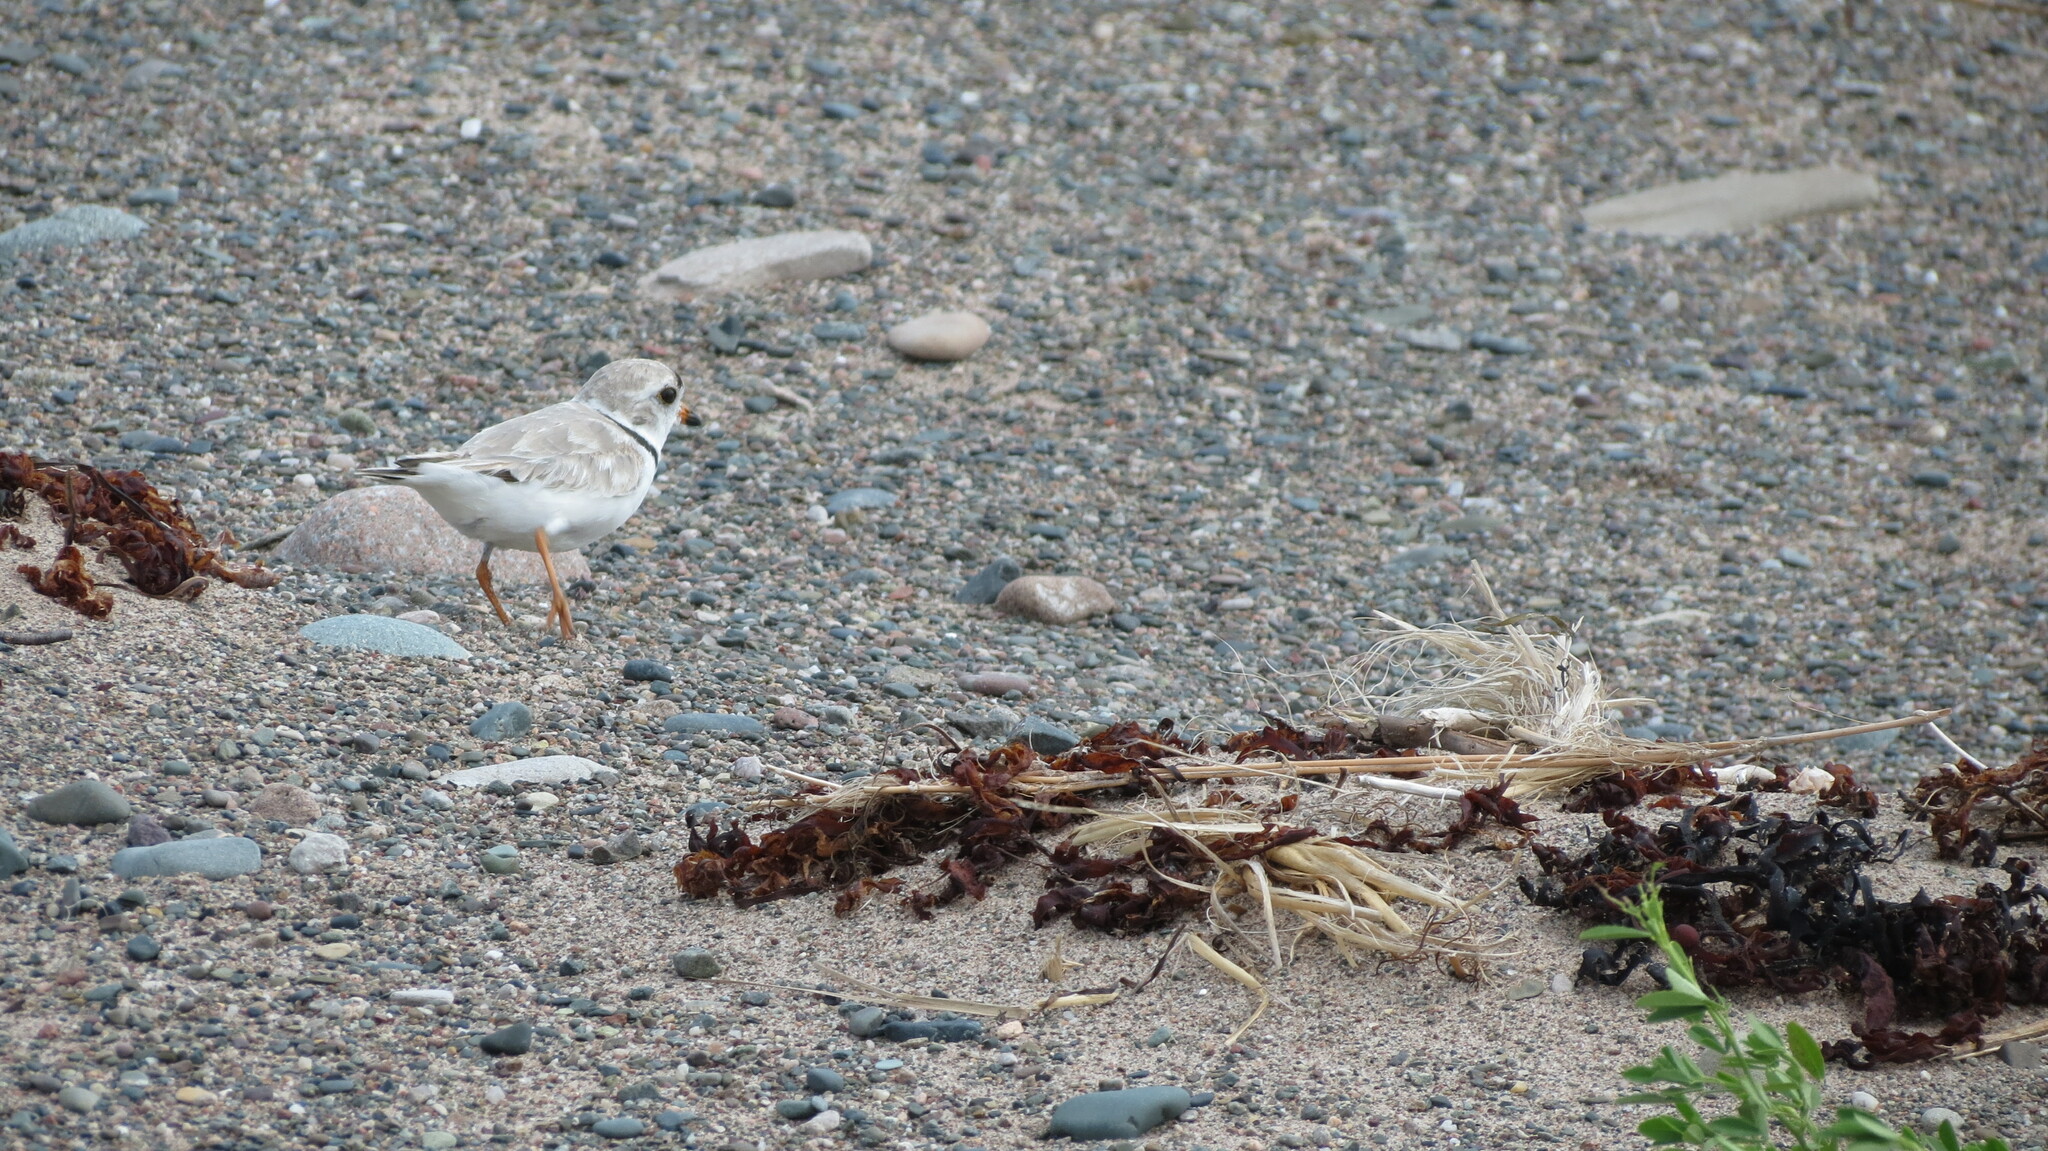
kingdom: Animalia
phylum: Chordata
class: Aves
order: Charadriiformes
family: Charadriidae
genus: Charadrius
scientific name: Charadrius melodus
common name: Piping plover
